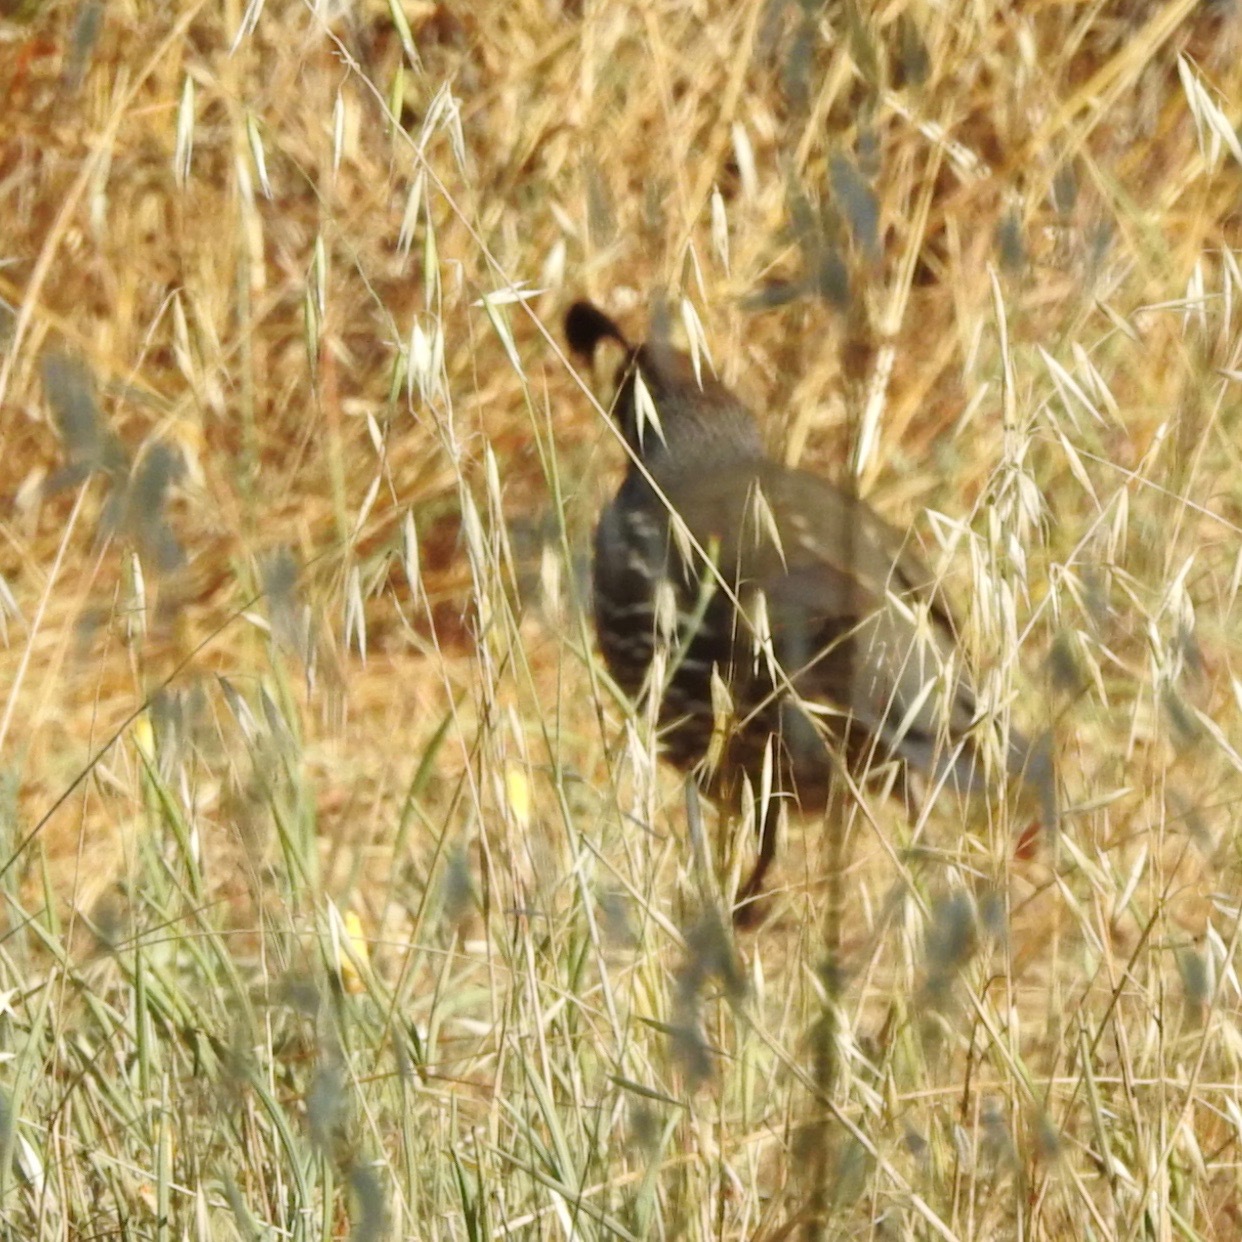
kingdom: Animalia
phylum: Chordata
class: Aves
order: Galliformes
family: Odontophoridae
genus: Callipepla
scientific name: Callipepla californica
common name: California quail
